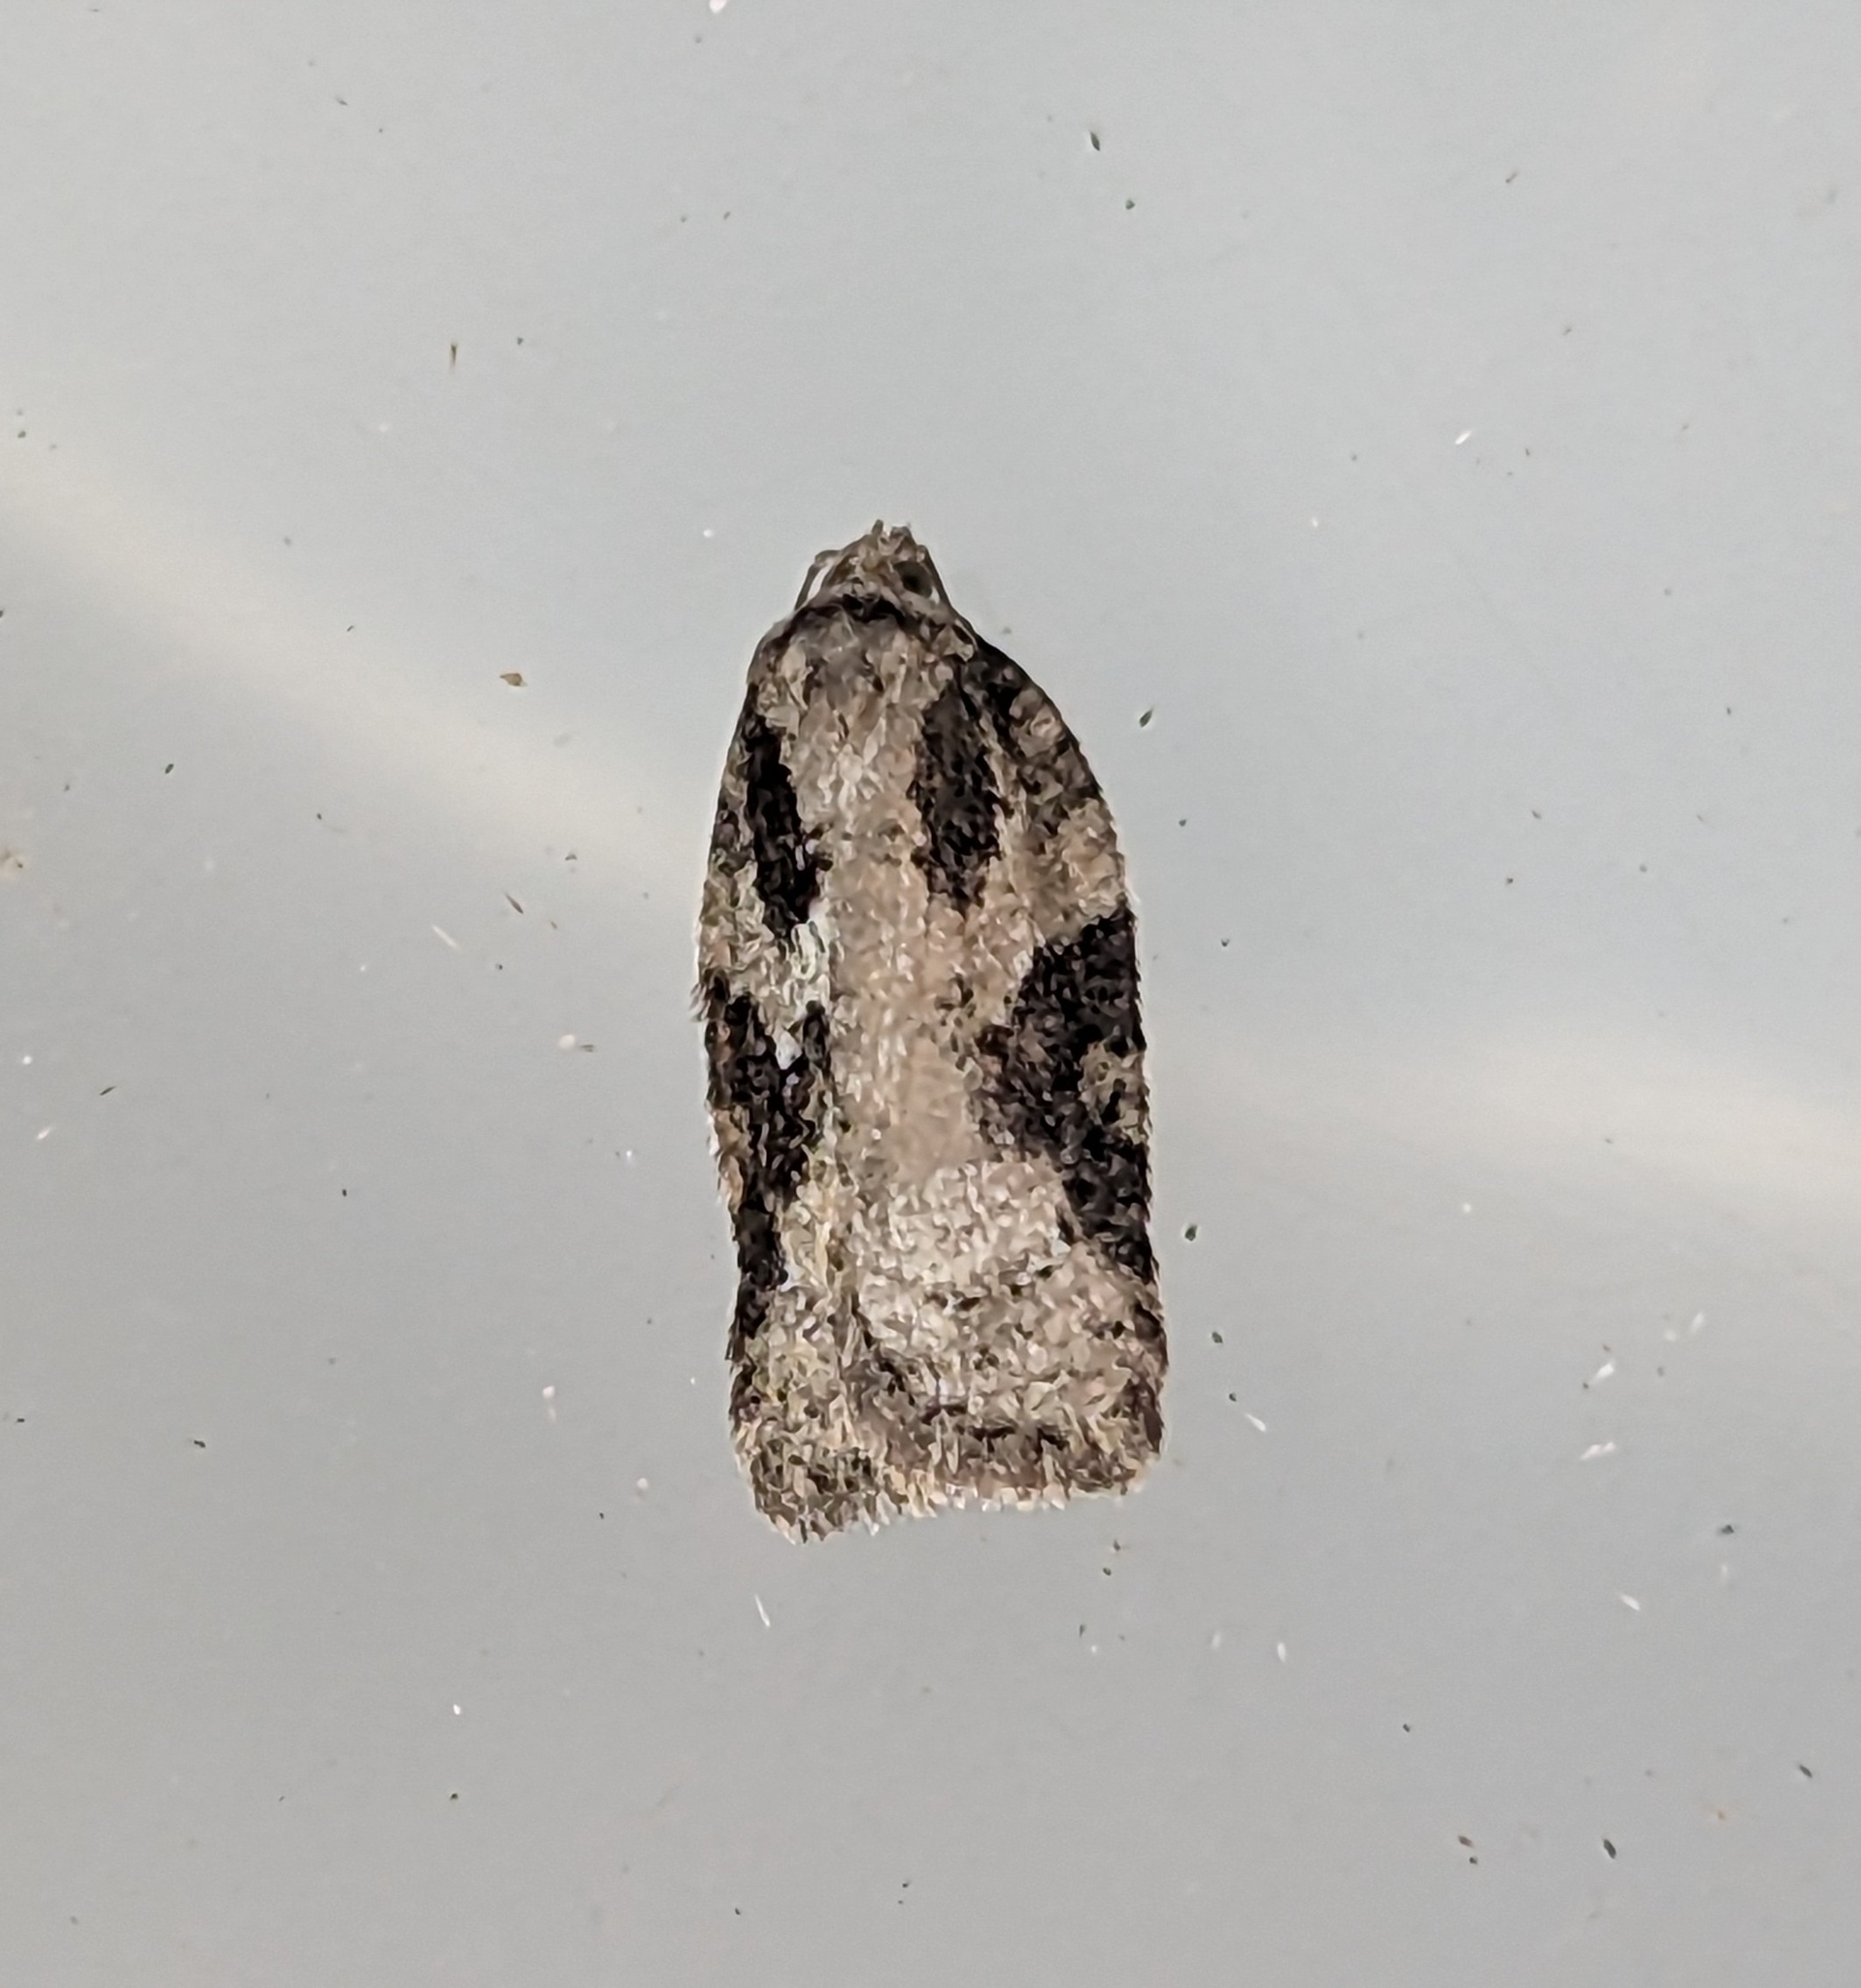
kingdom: Animalia
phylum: Arthropoda
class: Insecta
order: Lepidoptera
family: Tortricidae
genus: Acleris
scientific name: Acleris
